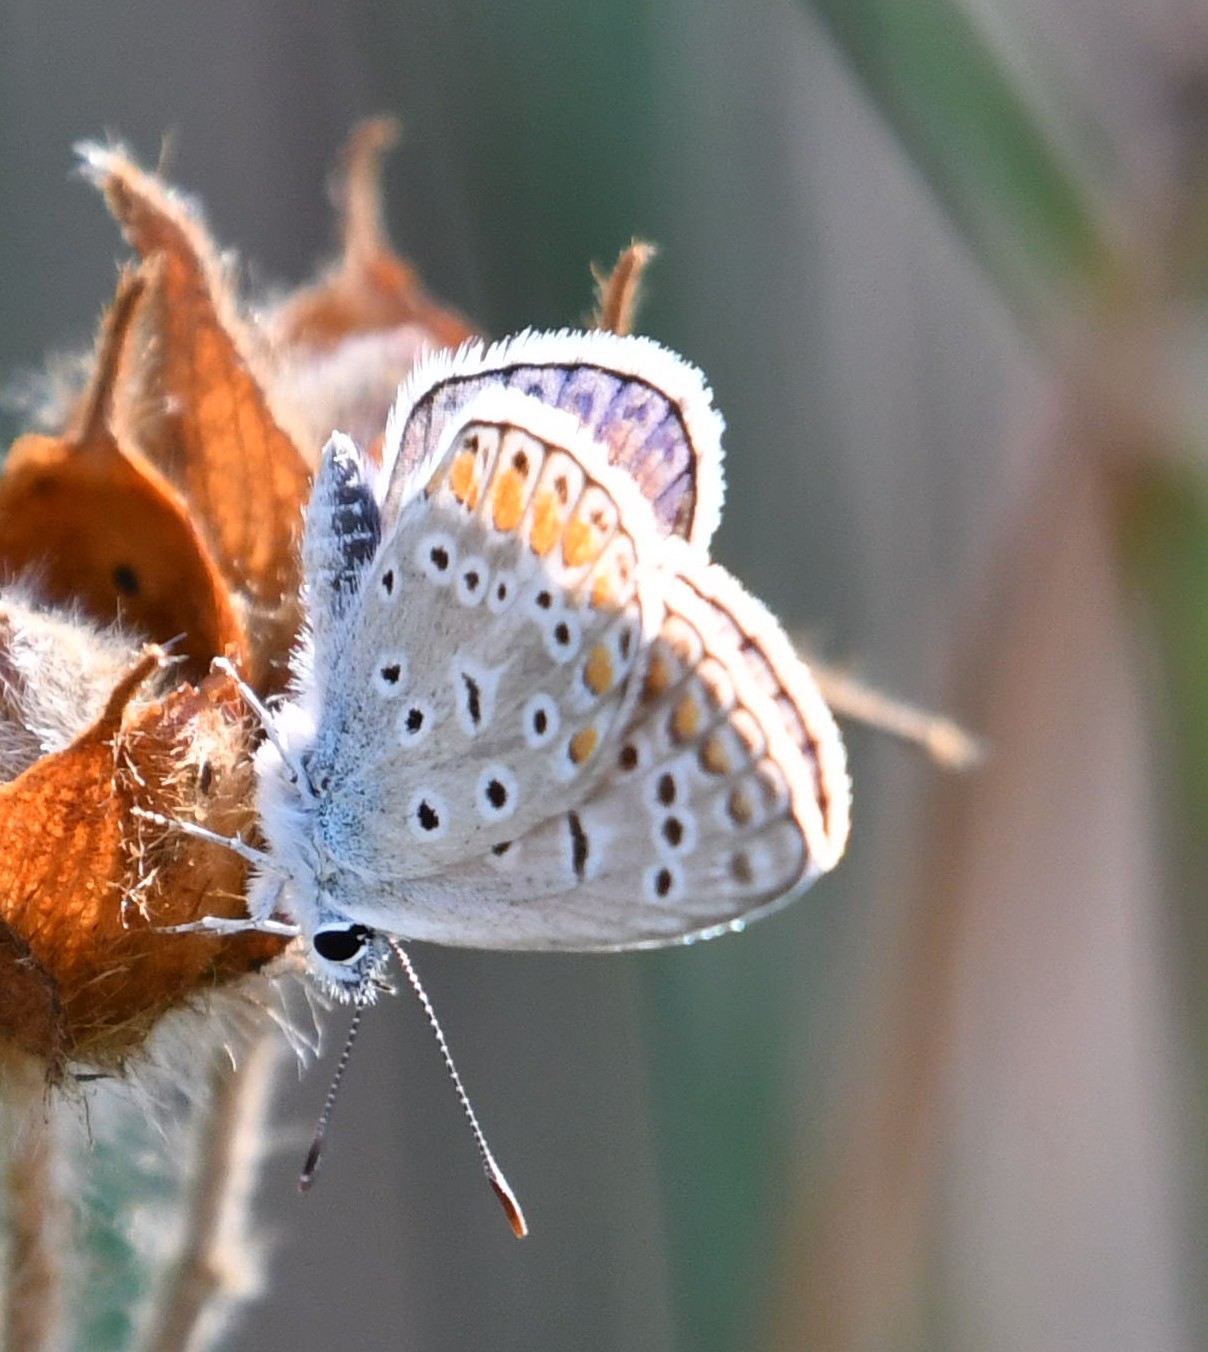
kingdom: Animalia
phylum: Arthropoda
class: Insecta
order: Lepidoptera
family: Lycaenidae
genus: Aricia
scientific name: Aricia agestis
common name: Brown argus
